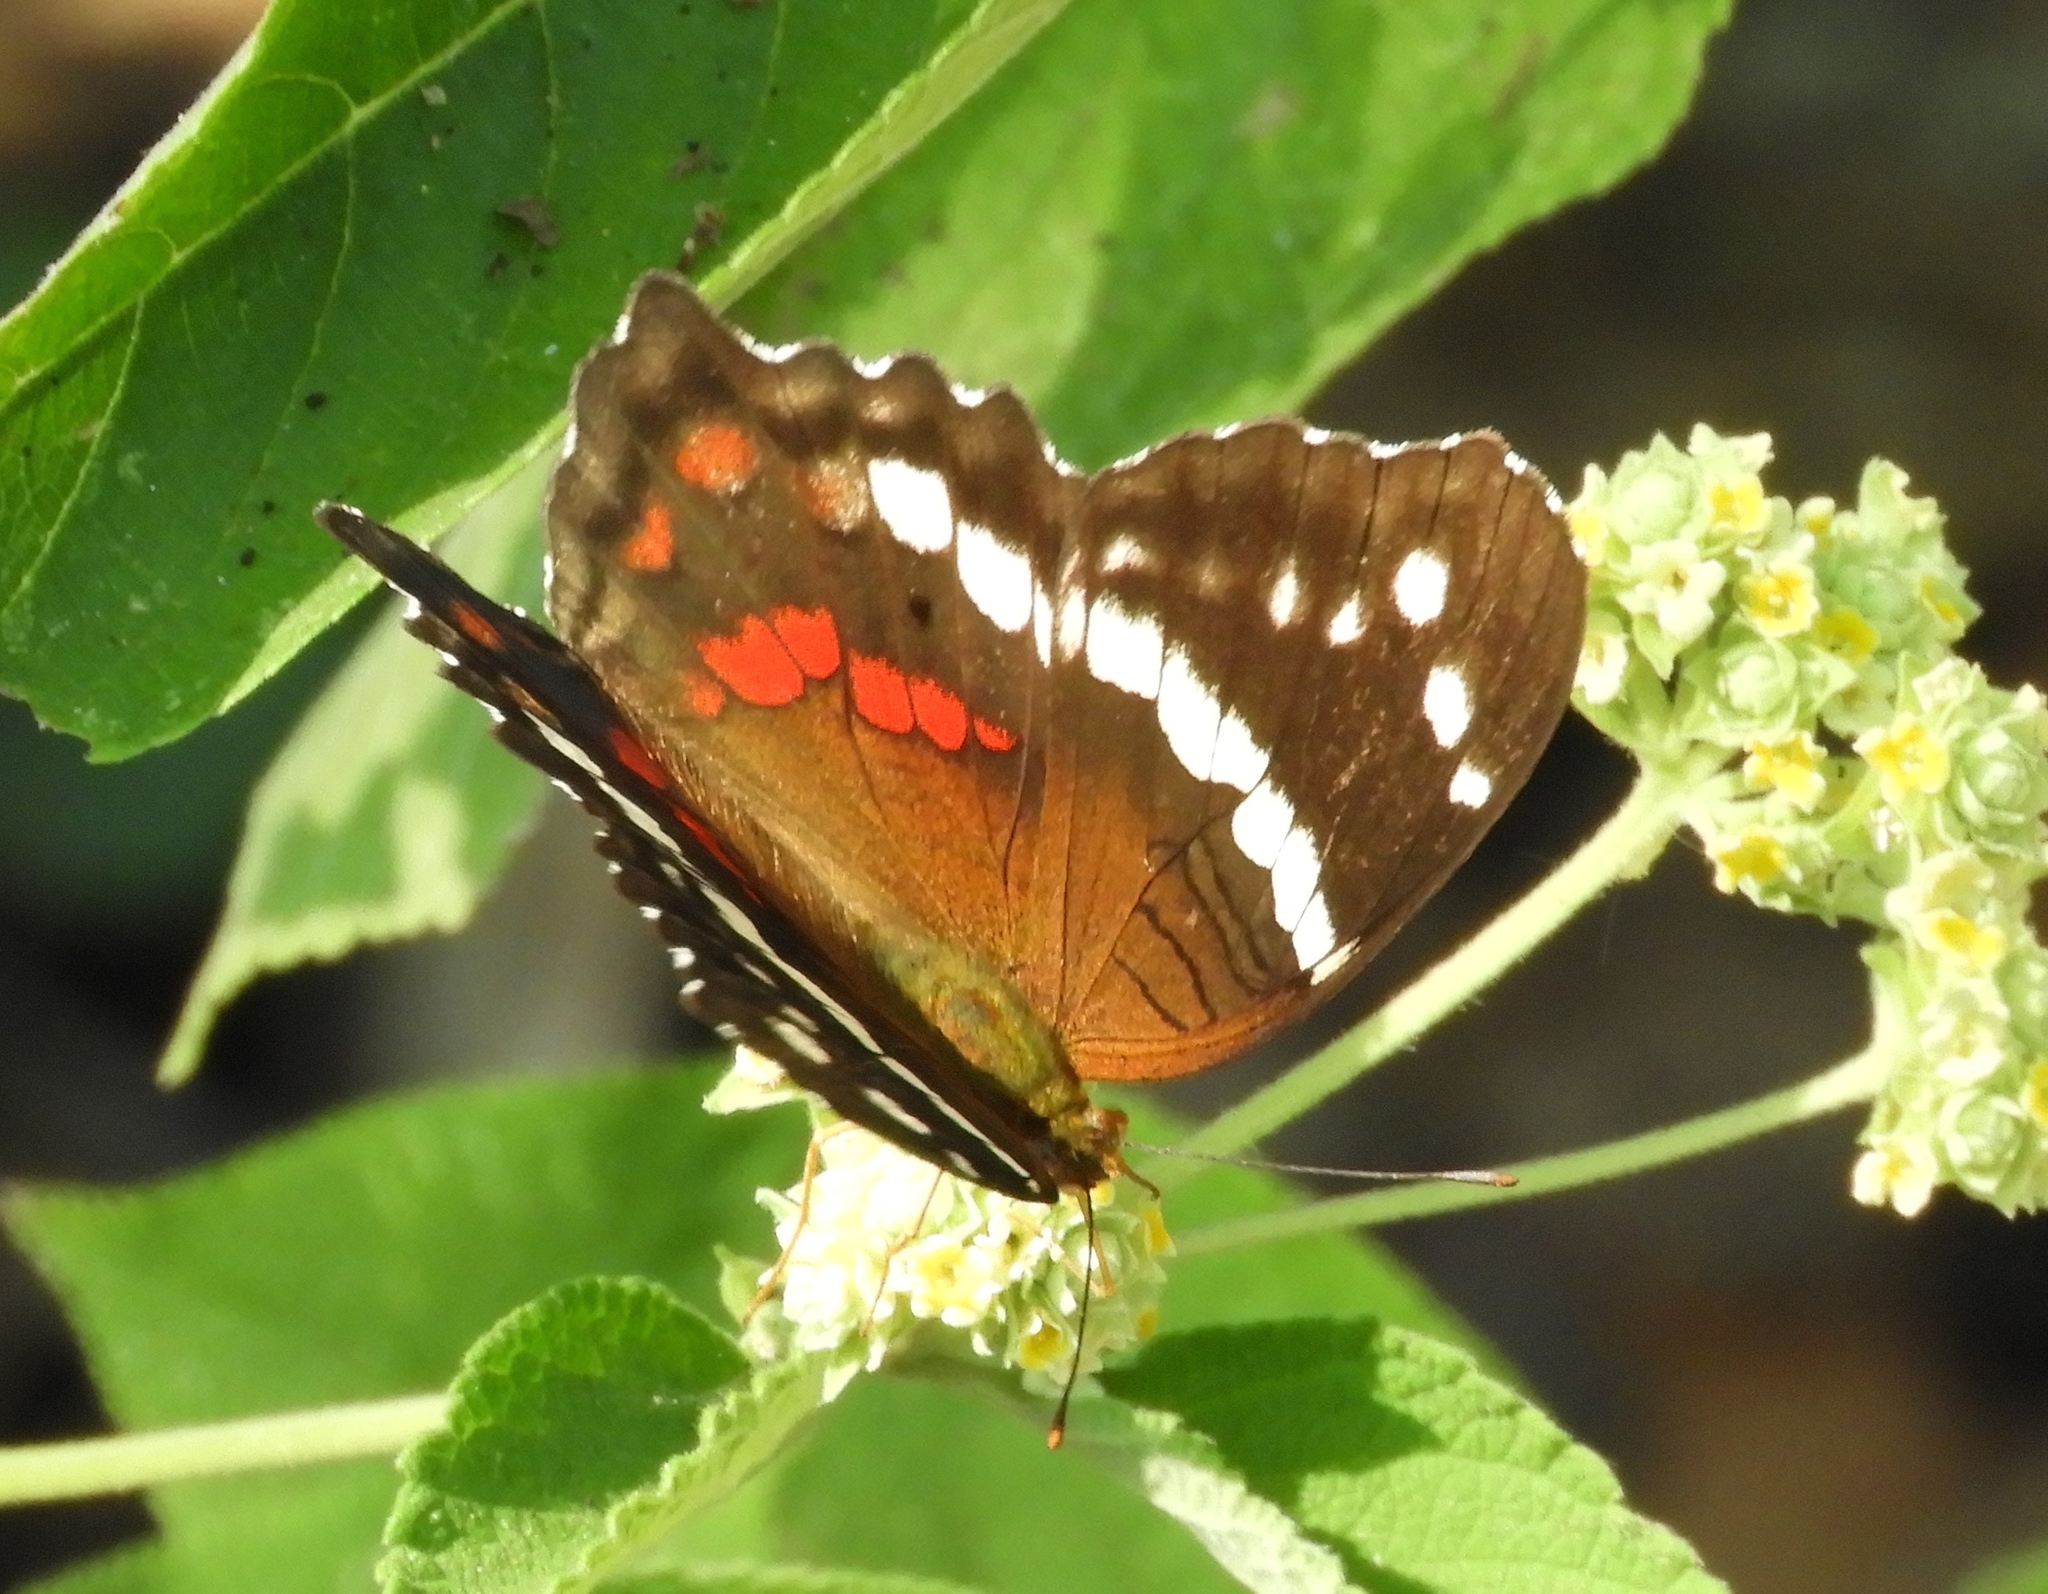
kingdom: Animalia
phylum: Arthropoda
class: Insecta
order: Lepidoptera
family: Nymphalidae
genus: Anartia
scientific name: Anartia fatima
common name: Banded peacock
